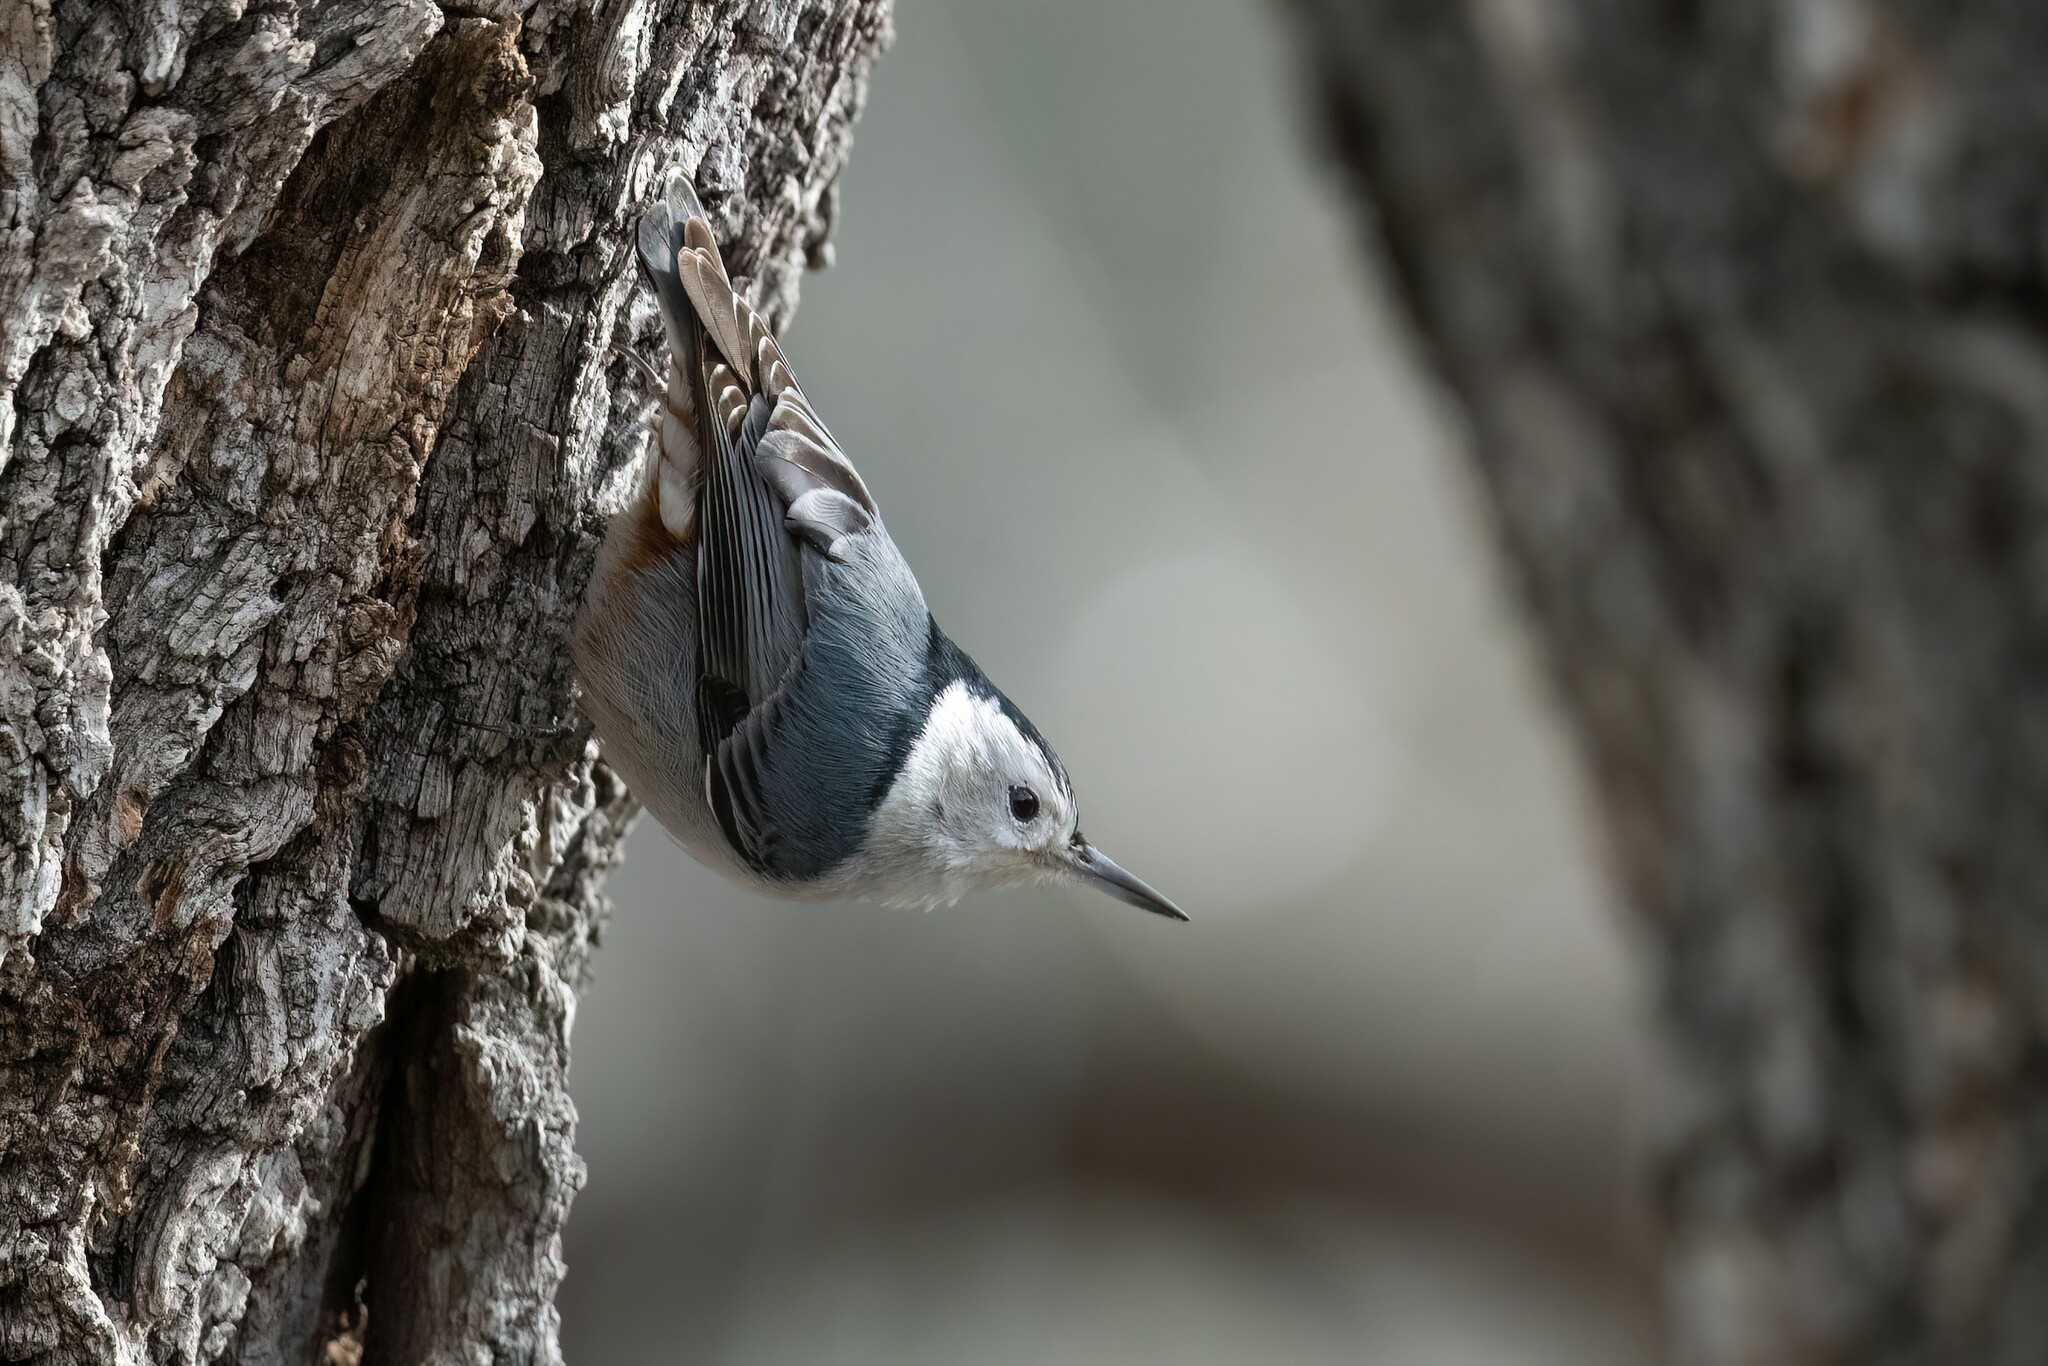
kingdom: Animalia
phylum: Chordata
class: Aves
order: Passeriformes
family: Sittidae
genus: Sitta
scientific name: Sitta carolinensis
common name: White-breasted nuthatch
